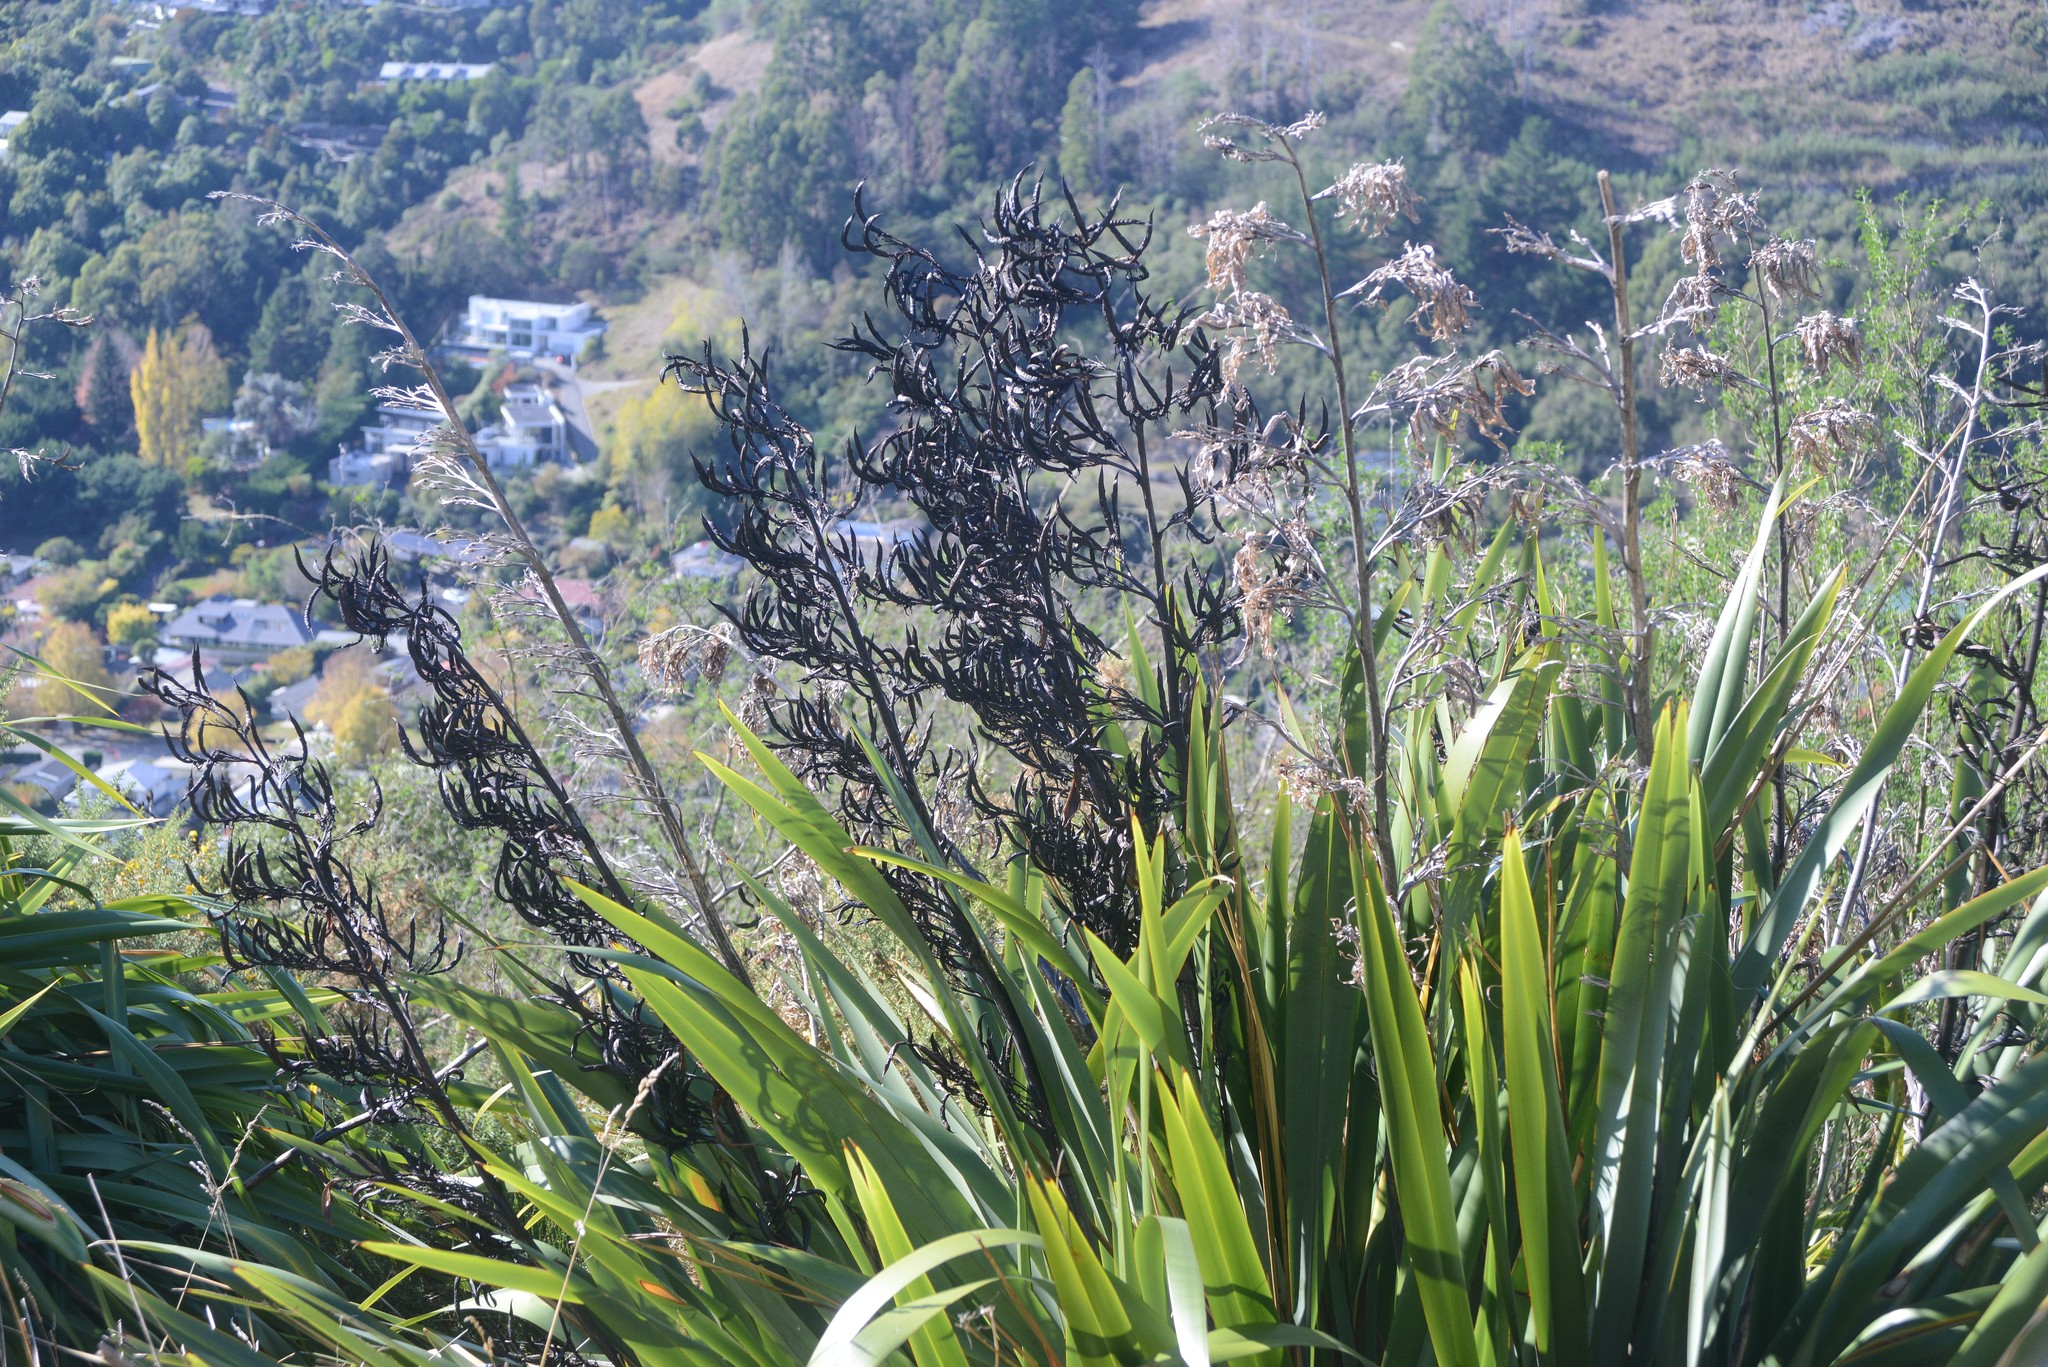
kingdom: Plantae
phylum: Tracheophyta
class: Liliopsida
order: Asparagales
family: Asphodelaceae
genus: Phormium
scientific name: Phormium tenax
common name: New zealand flax
